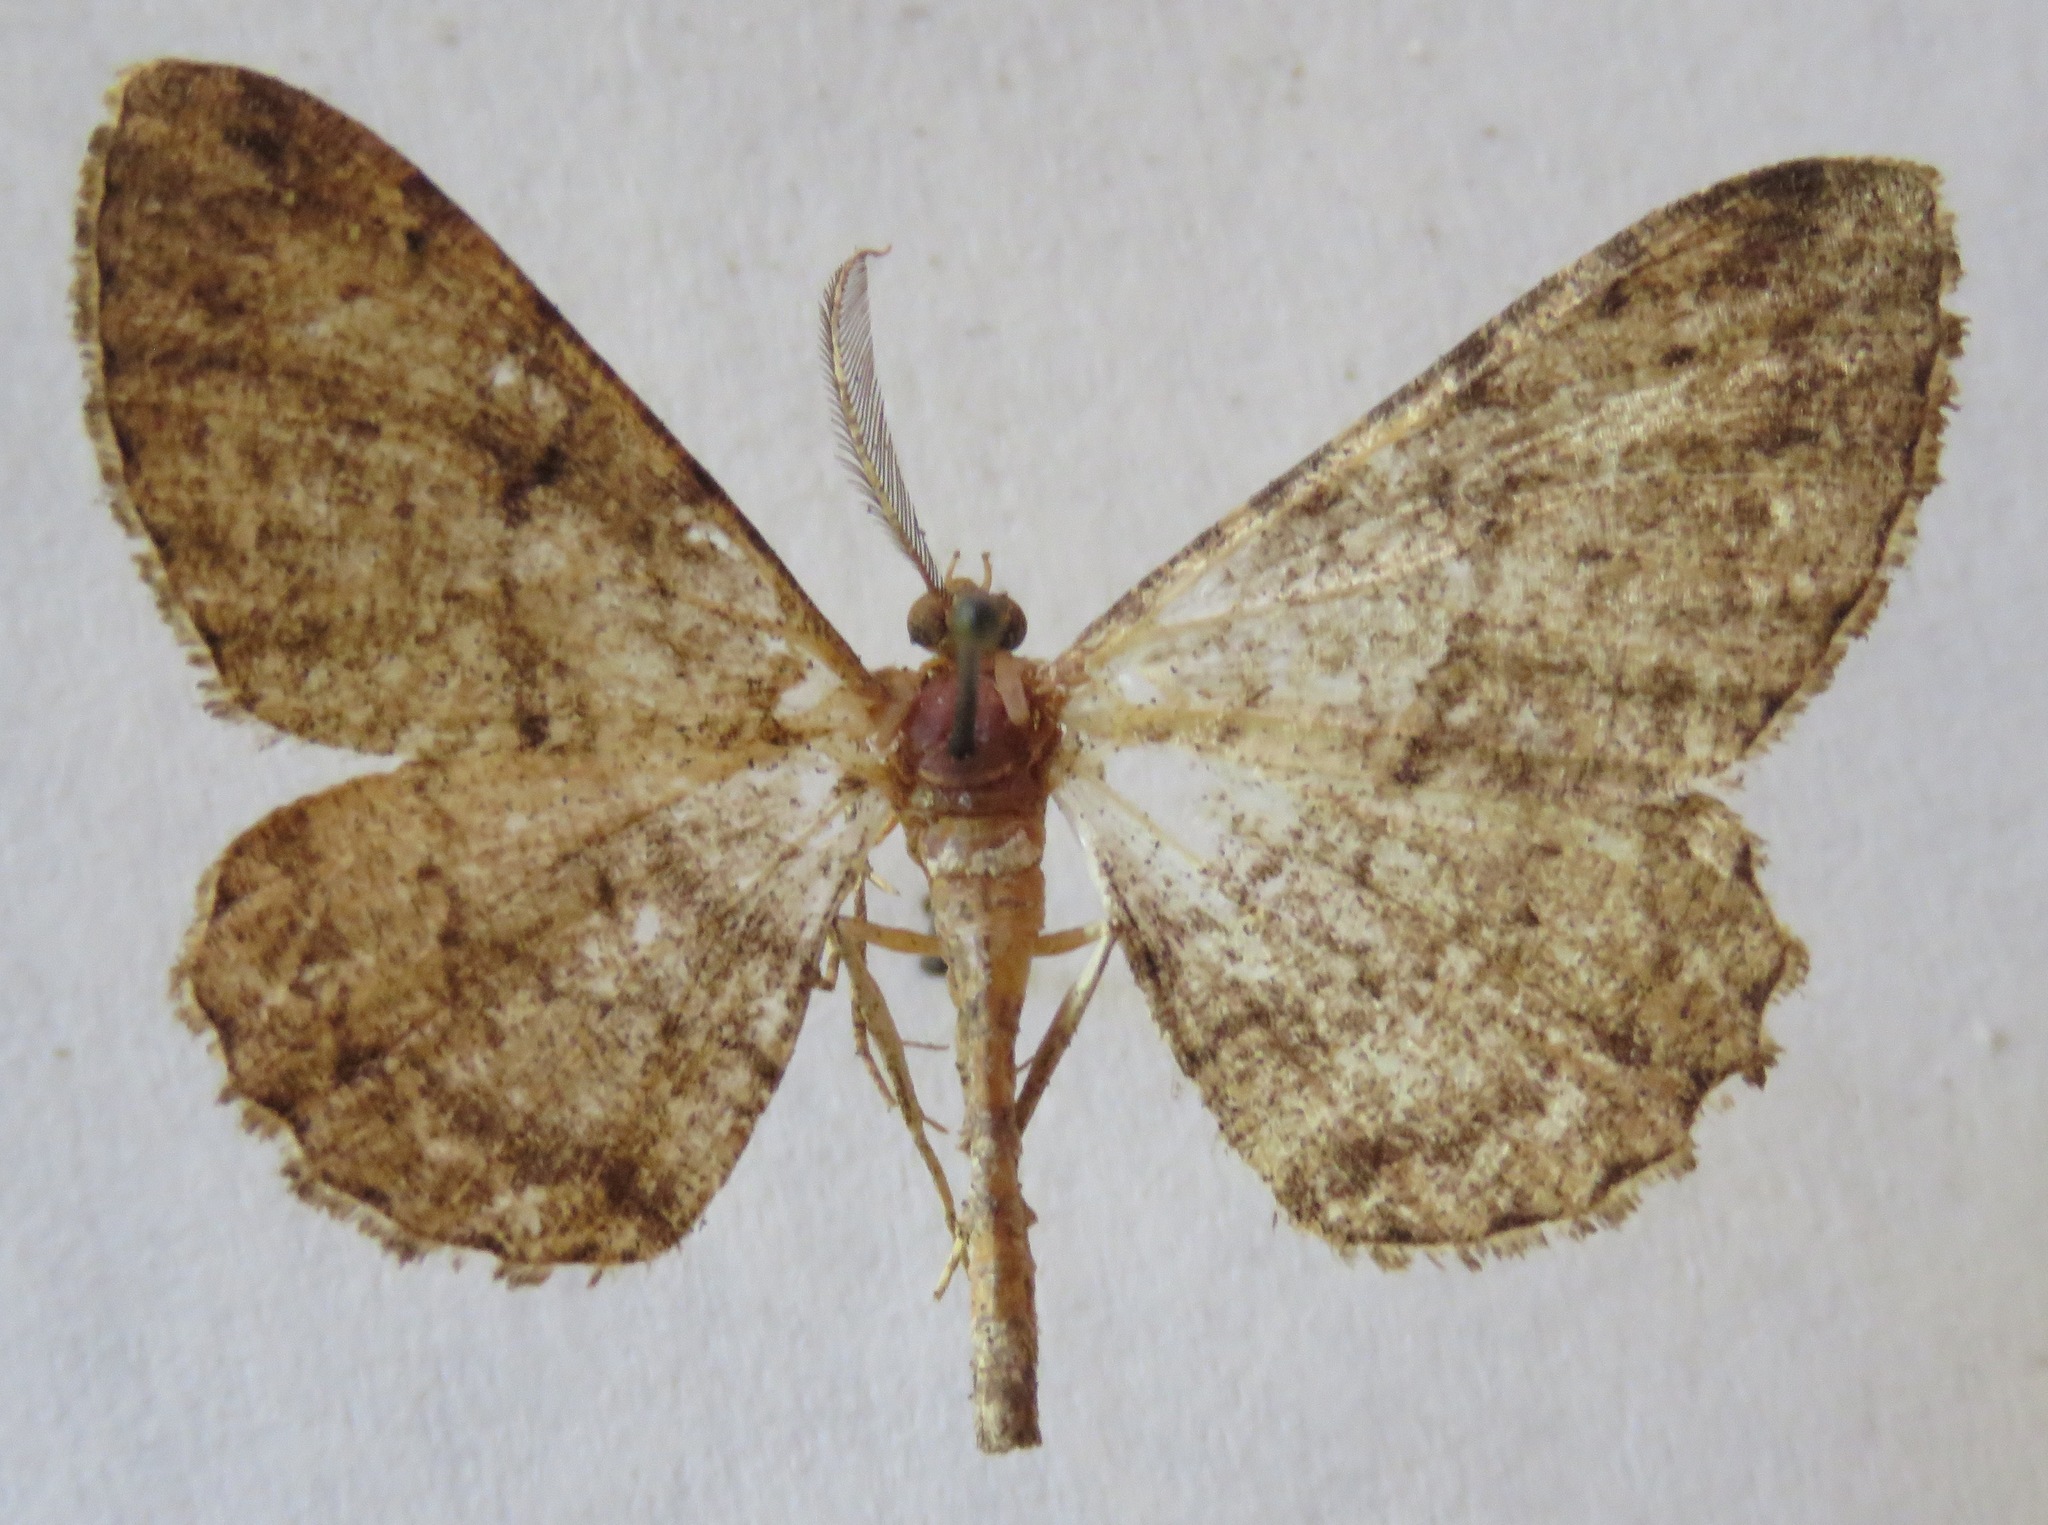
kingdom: Animalia
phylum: Arthropoda
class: Insecta
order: Lepidoptera
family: Geometridae
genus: Hypomecis
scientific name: Hypomecis roboraria
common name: Great oak beauty
